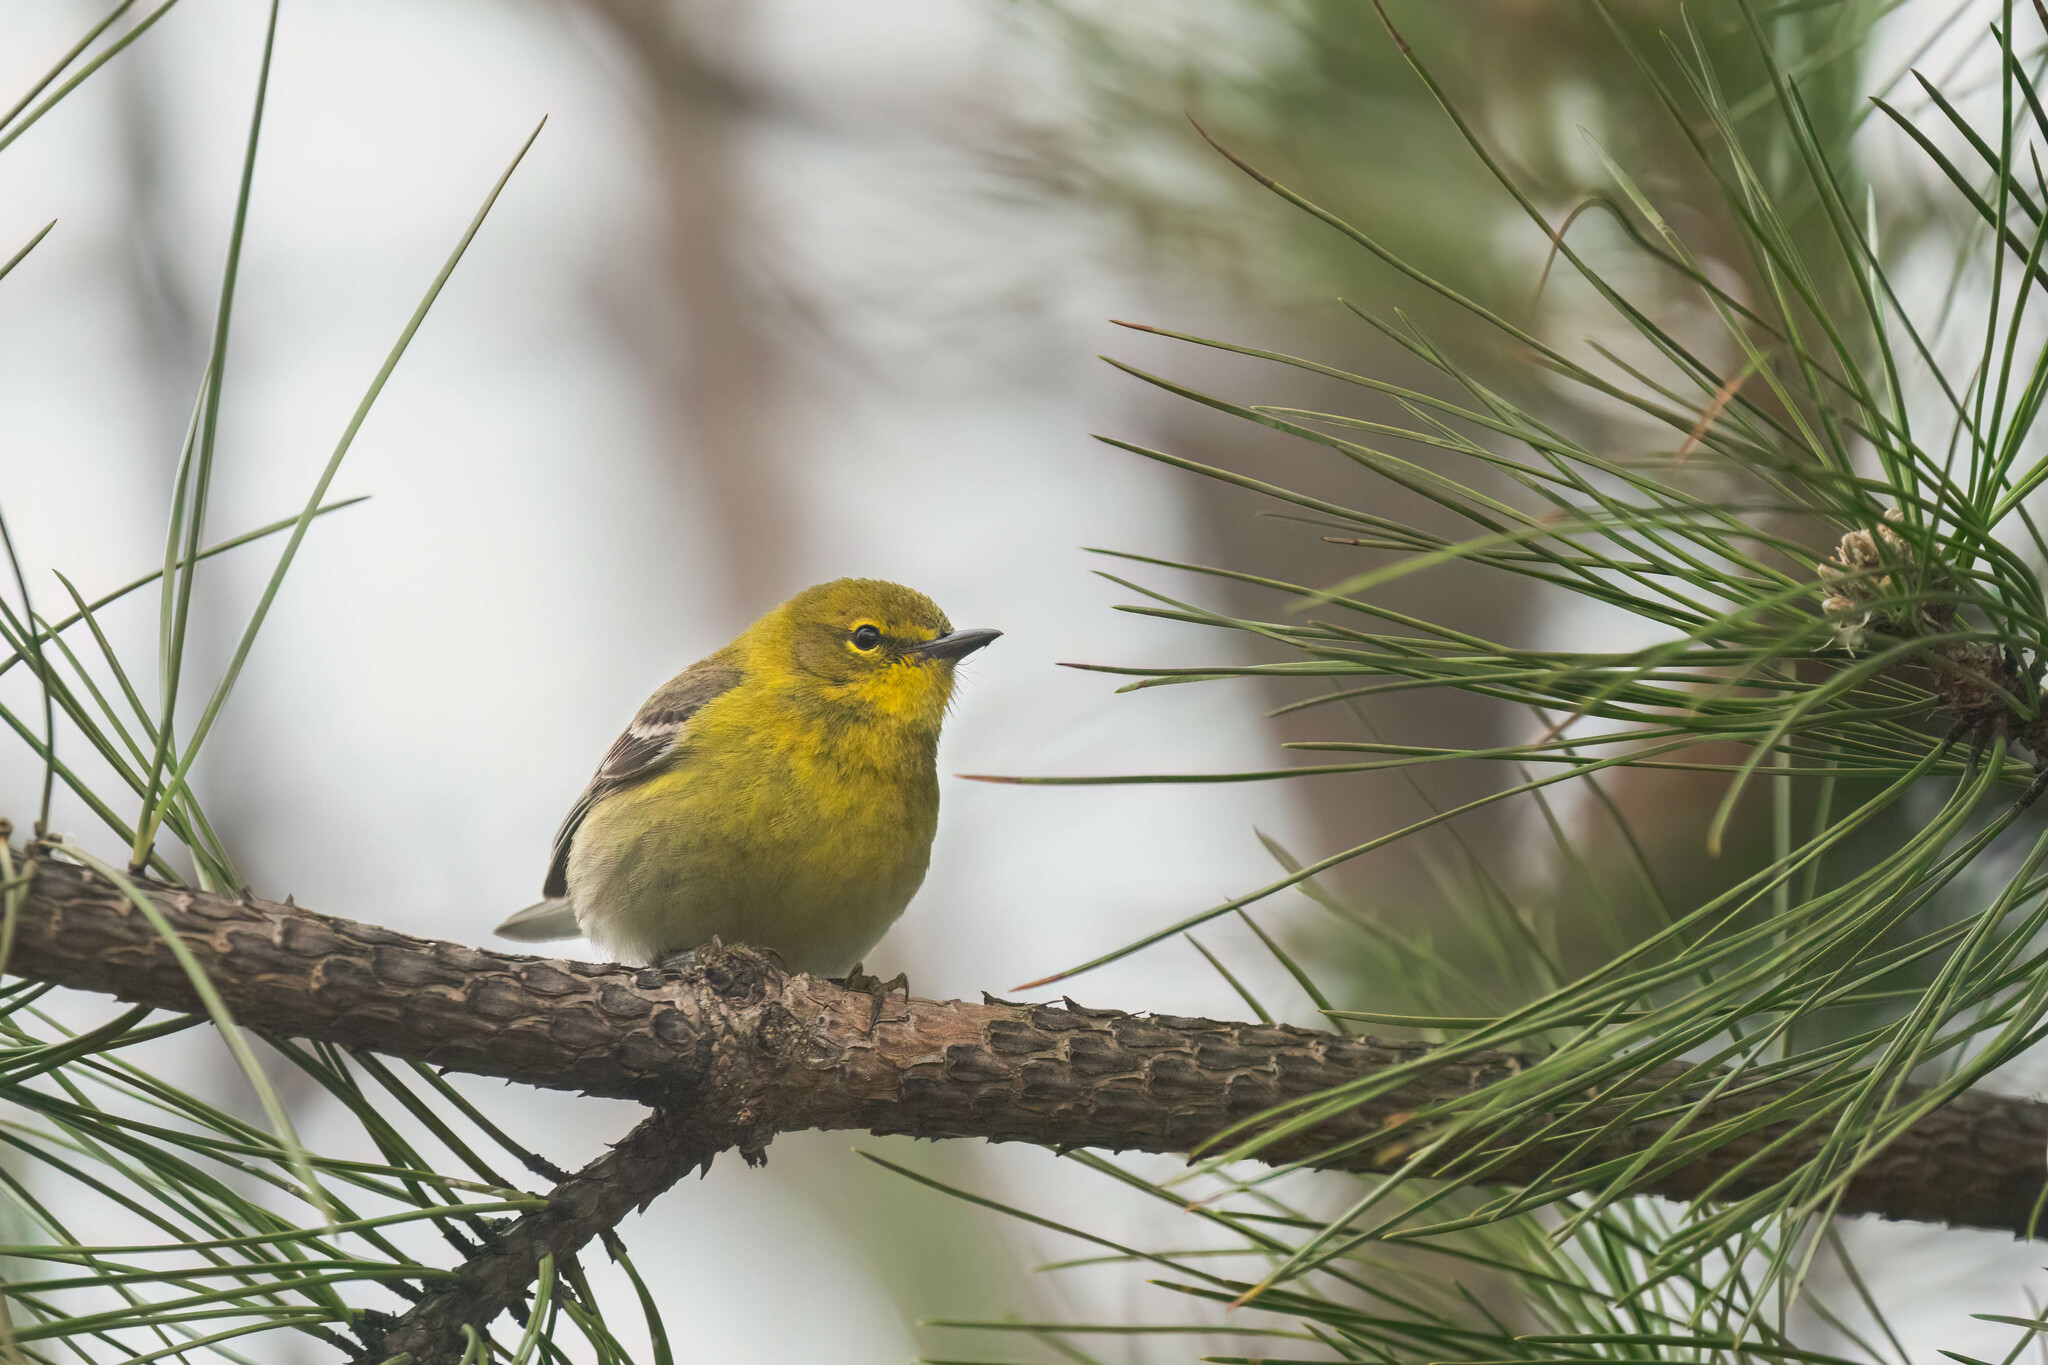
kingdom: Animalia
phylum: Chordata
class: Aves
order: Passeriformes
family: Parulidae
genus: Setophaga
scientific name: Setophaga pinus
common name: Pine warbler
